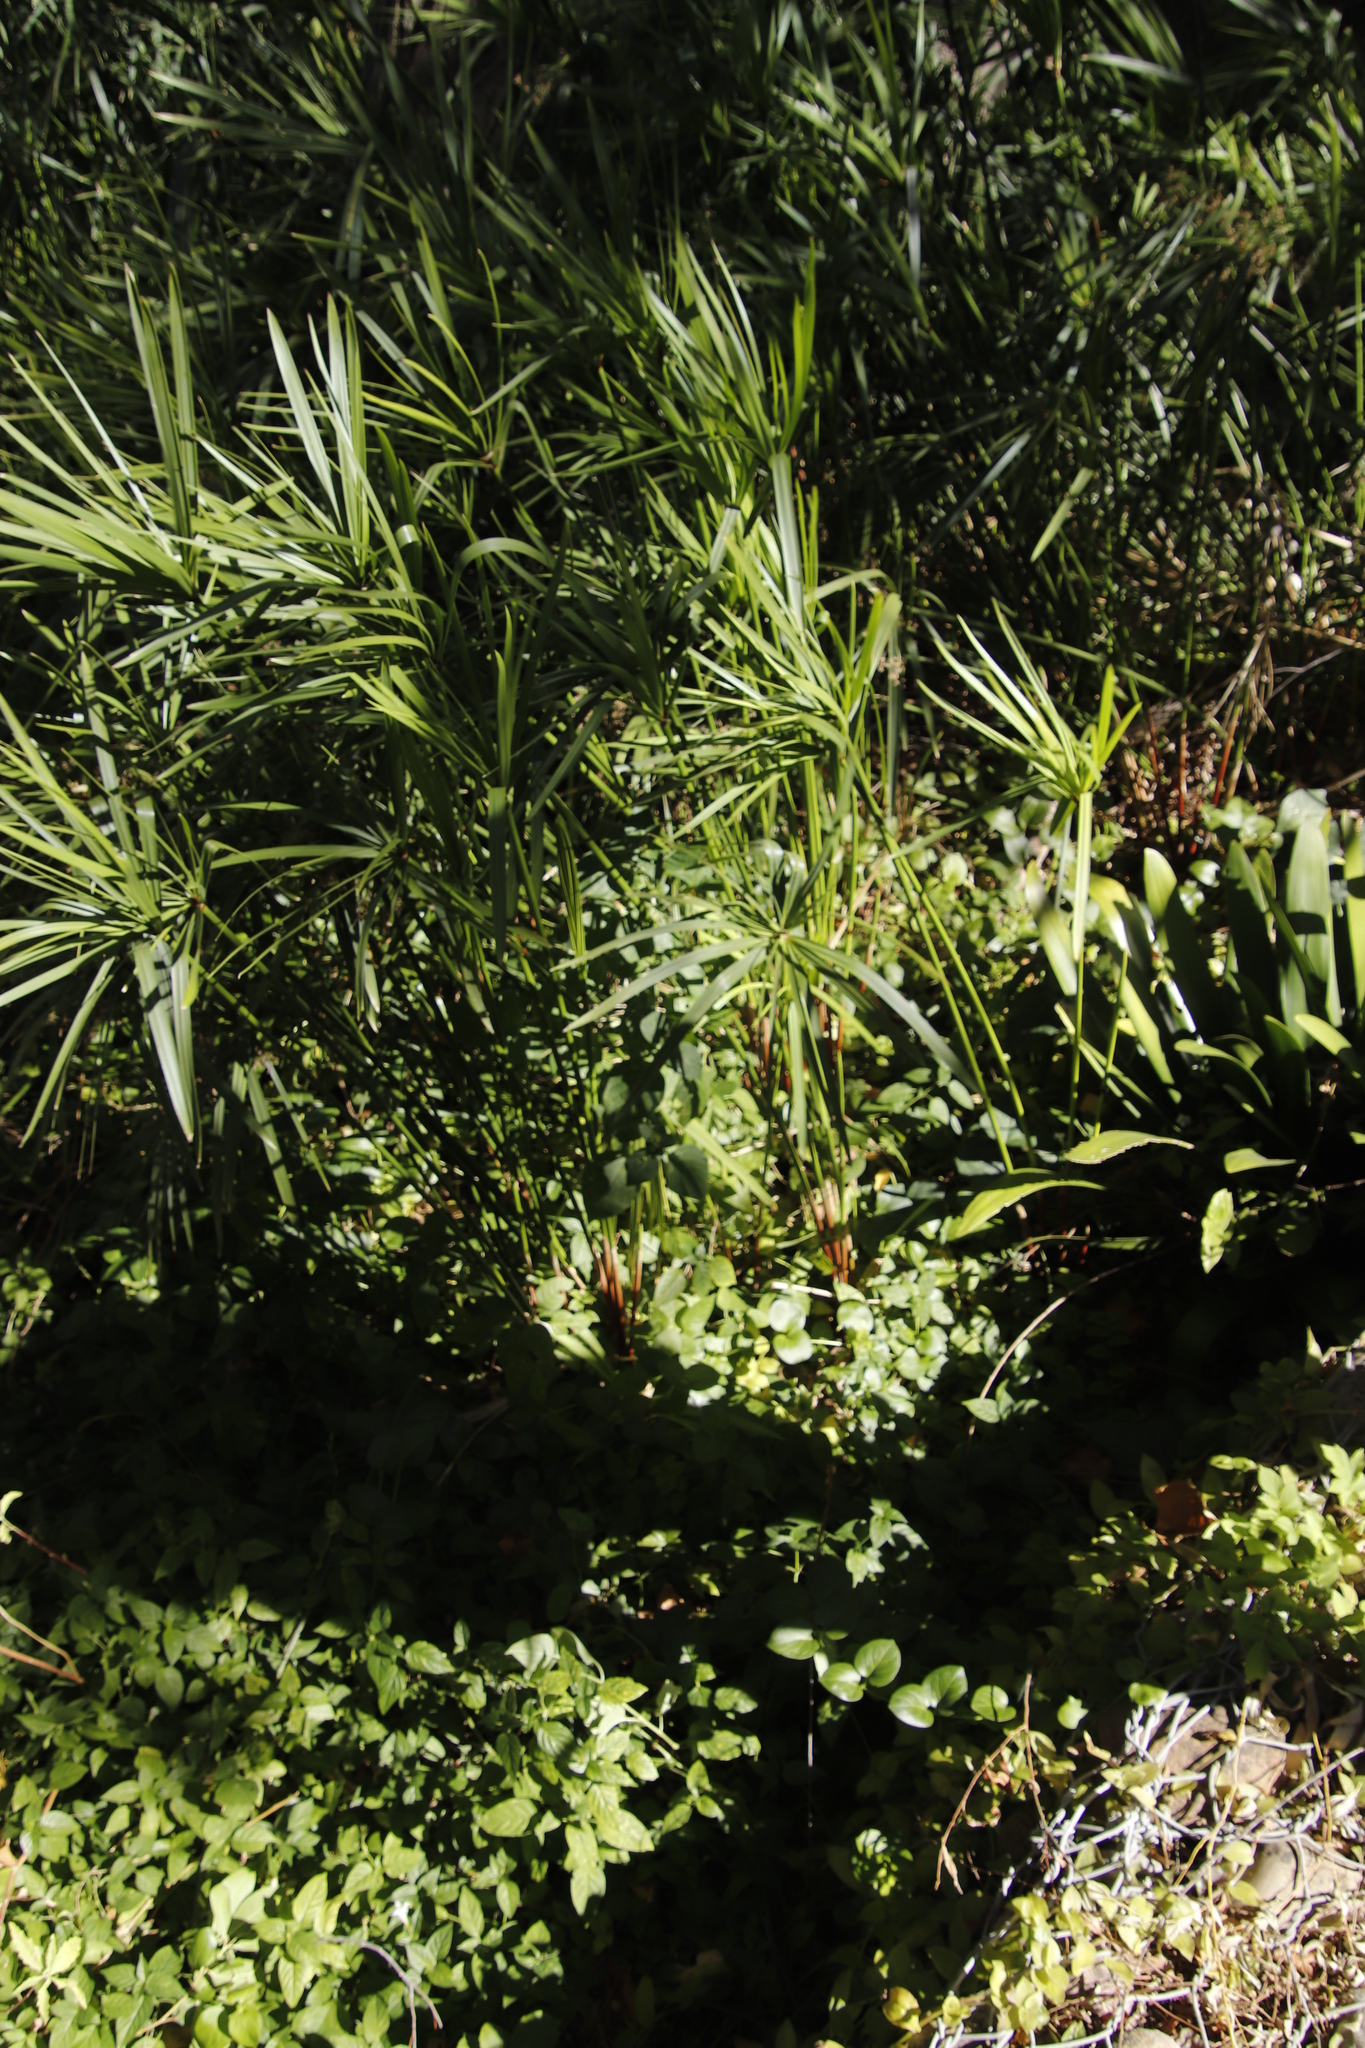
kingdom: Plantae
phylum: Tracheophyta
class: Magnoliopsida
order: Lamiales
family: Acanthaceae
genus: Hypoestes
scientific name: Hypoestes aristata
